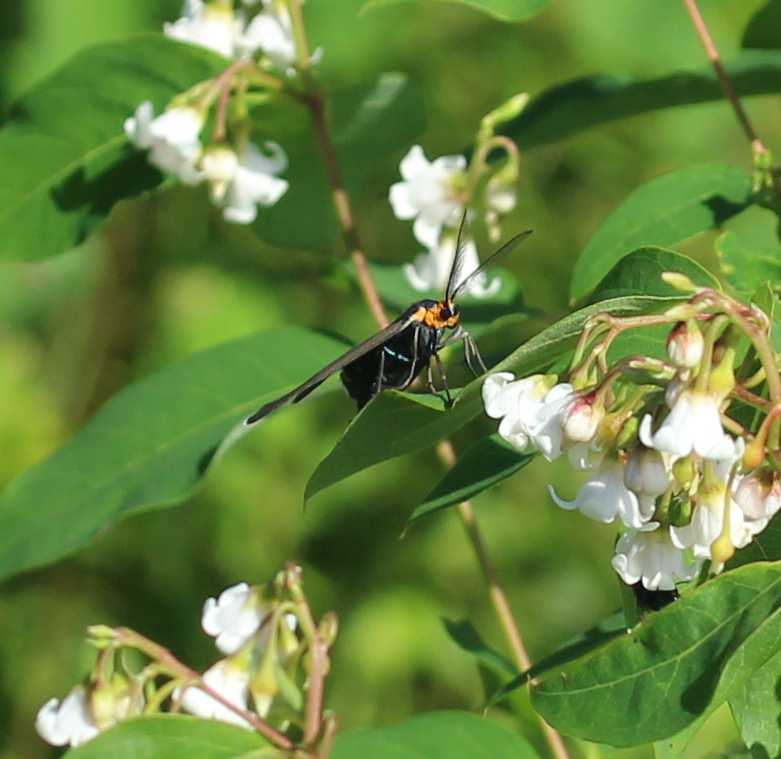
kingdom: Animalia
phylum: Arthropoda
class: Insecta
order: Lepidoptera
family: Erebidae
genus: Ctenucha
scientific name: Ctenucha virginica
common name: Virginia ctenucha moth
